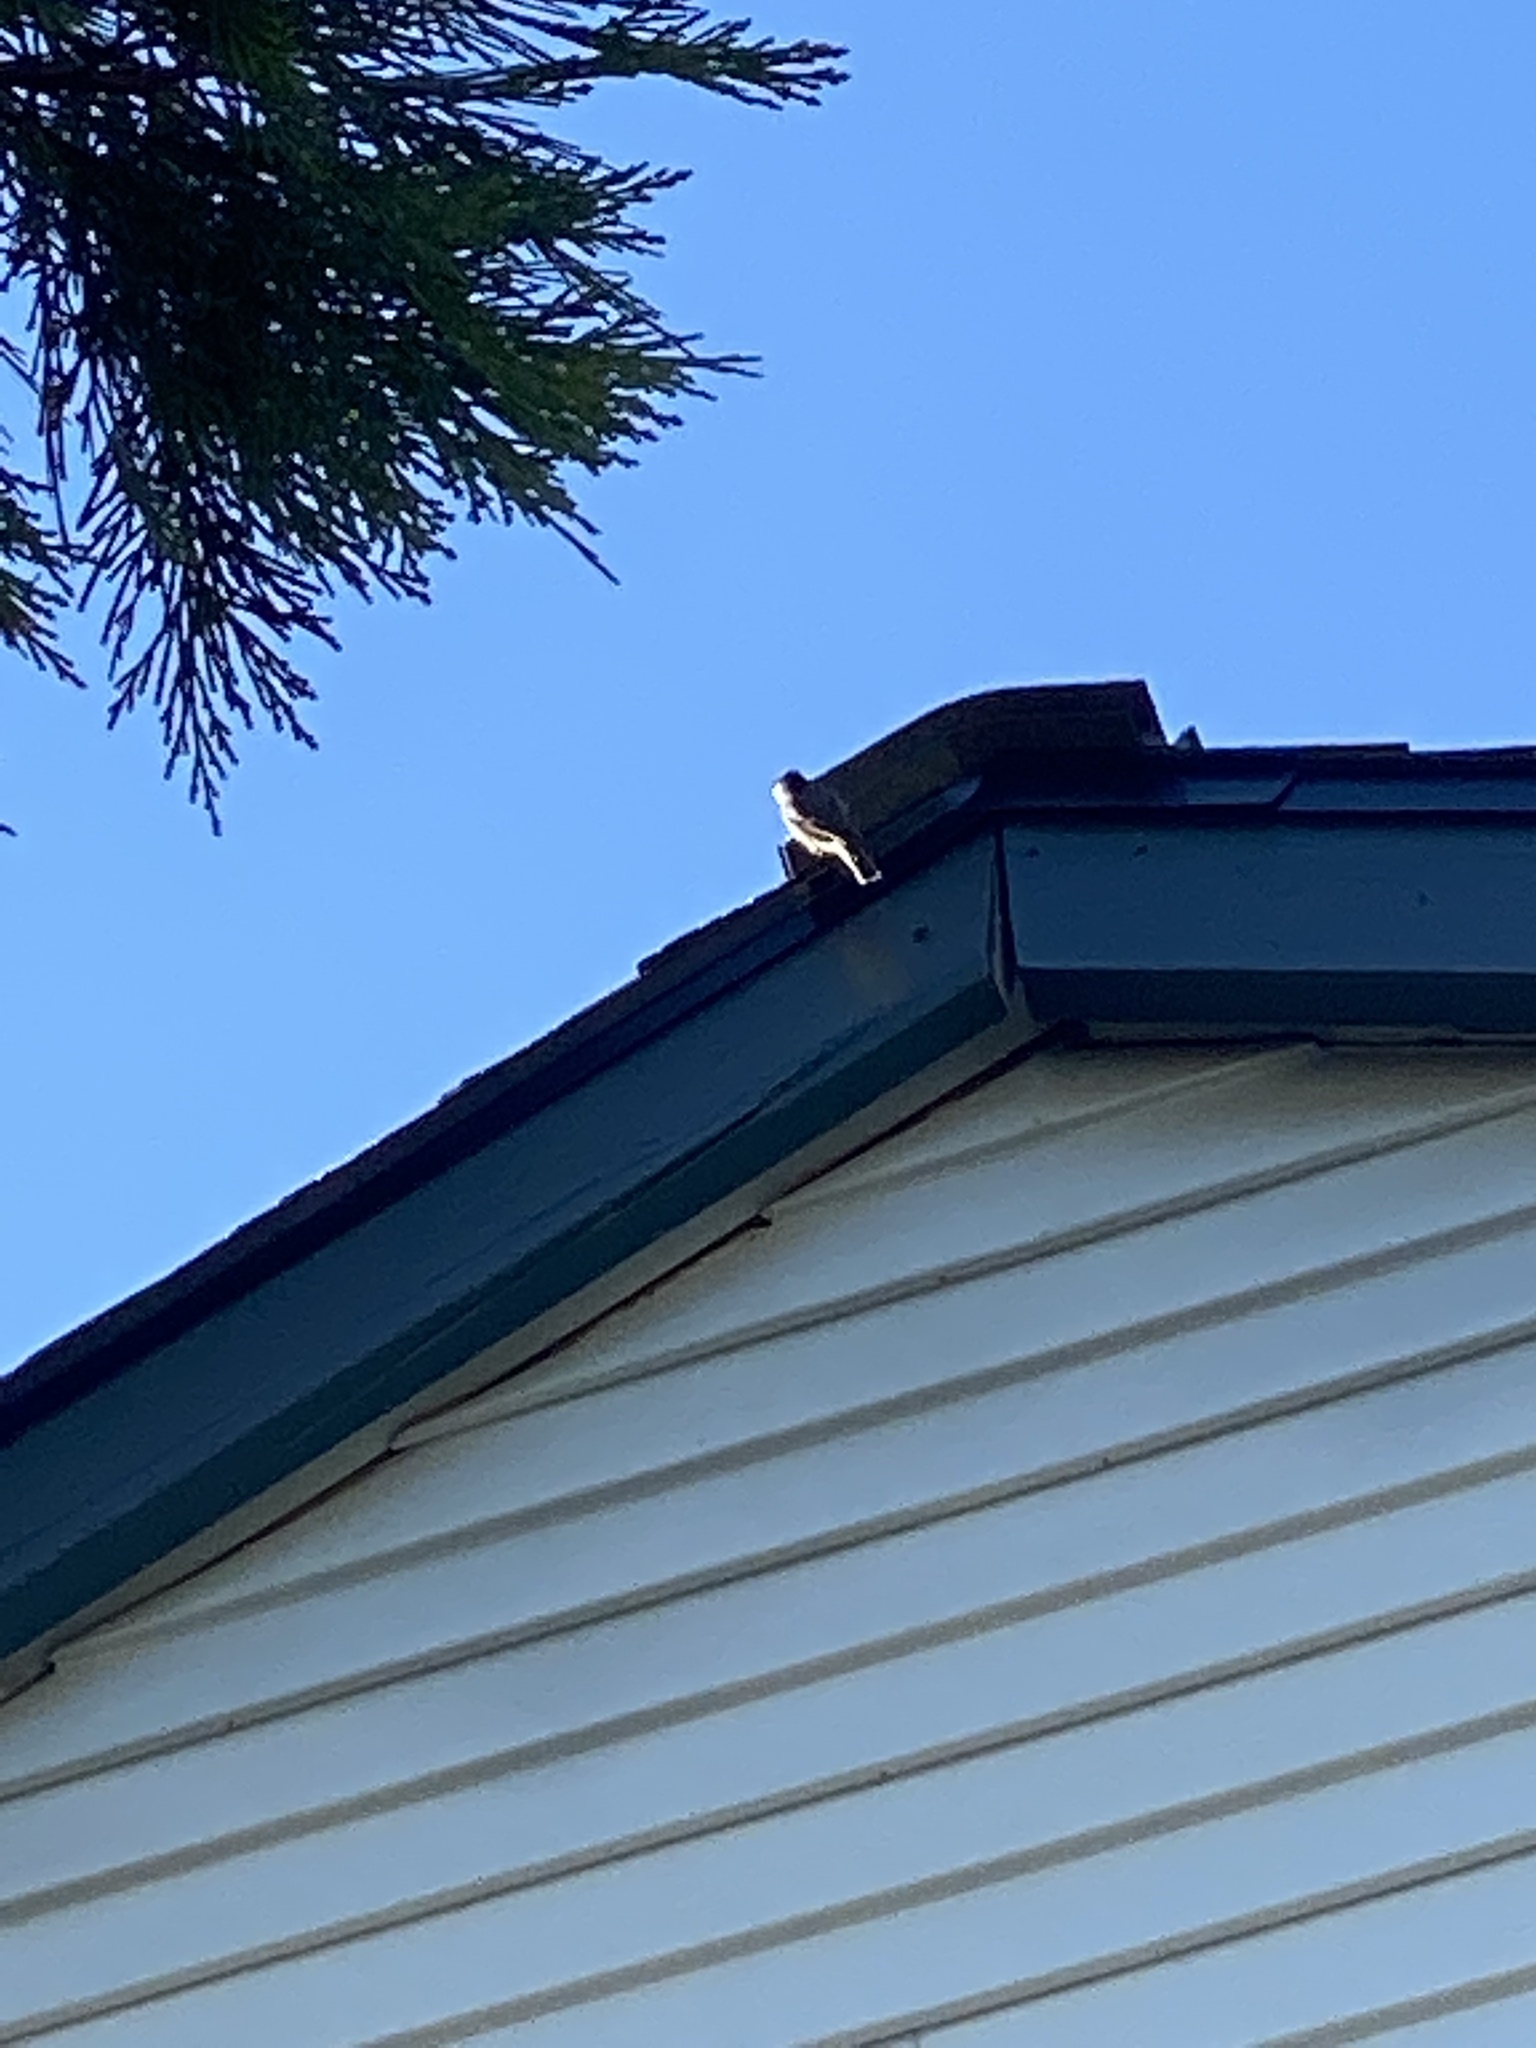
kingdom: Animalia
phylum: Chordata
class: Aves
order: Passeriformes
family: Paridae
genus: Poecile
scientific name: Poecile atricapillus
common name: Black-capped chickadee
